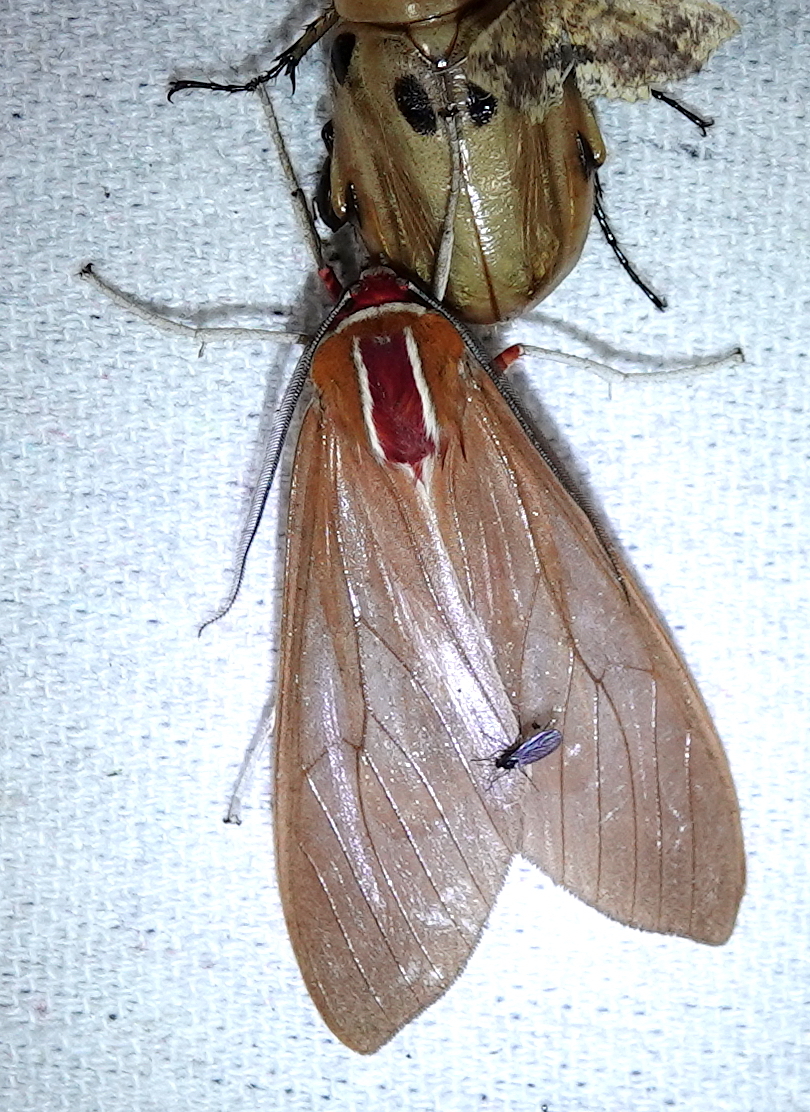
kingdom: Animalia
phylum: Arthropoda
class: Insecta
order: Lepidoptera
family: Erebidae
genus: Amastus
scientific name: Amastus coccinator
